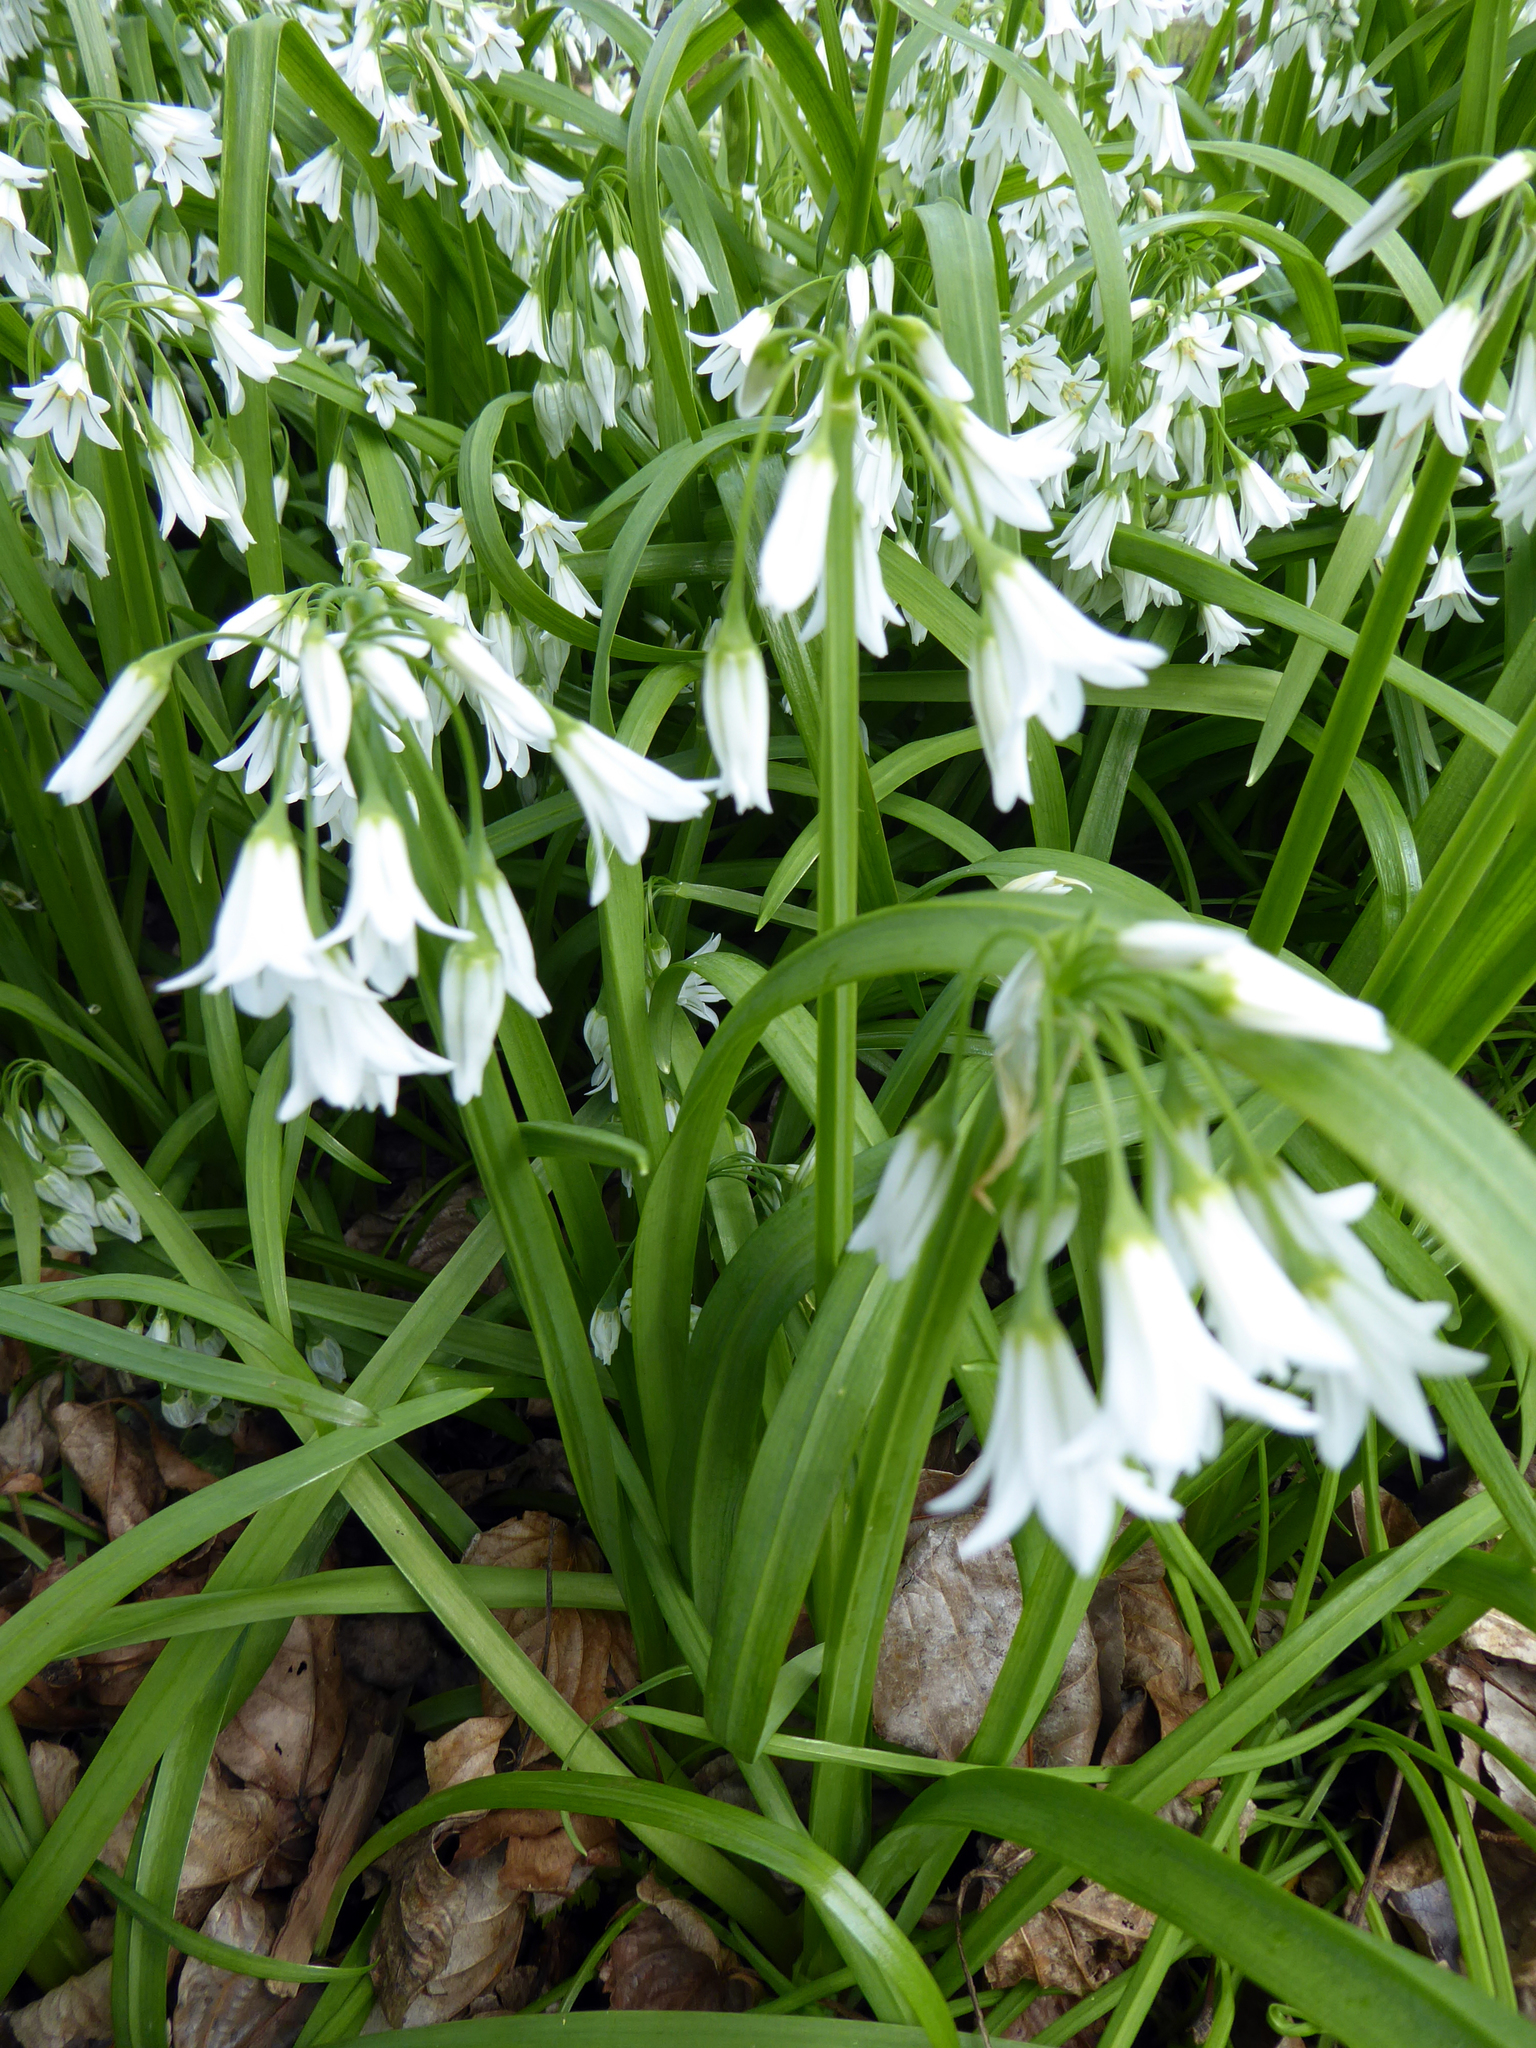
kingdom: Plantae
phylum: Tracheophyta
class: Liliopsida
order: Asparagales
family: Amaryllidaceae
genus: Allium
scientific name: Allium triquetrum
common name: Three-cornered garlic
